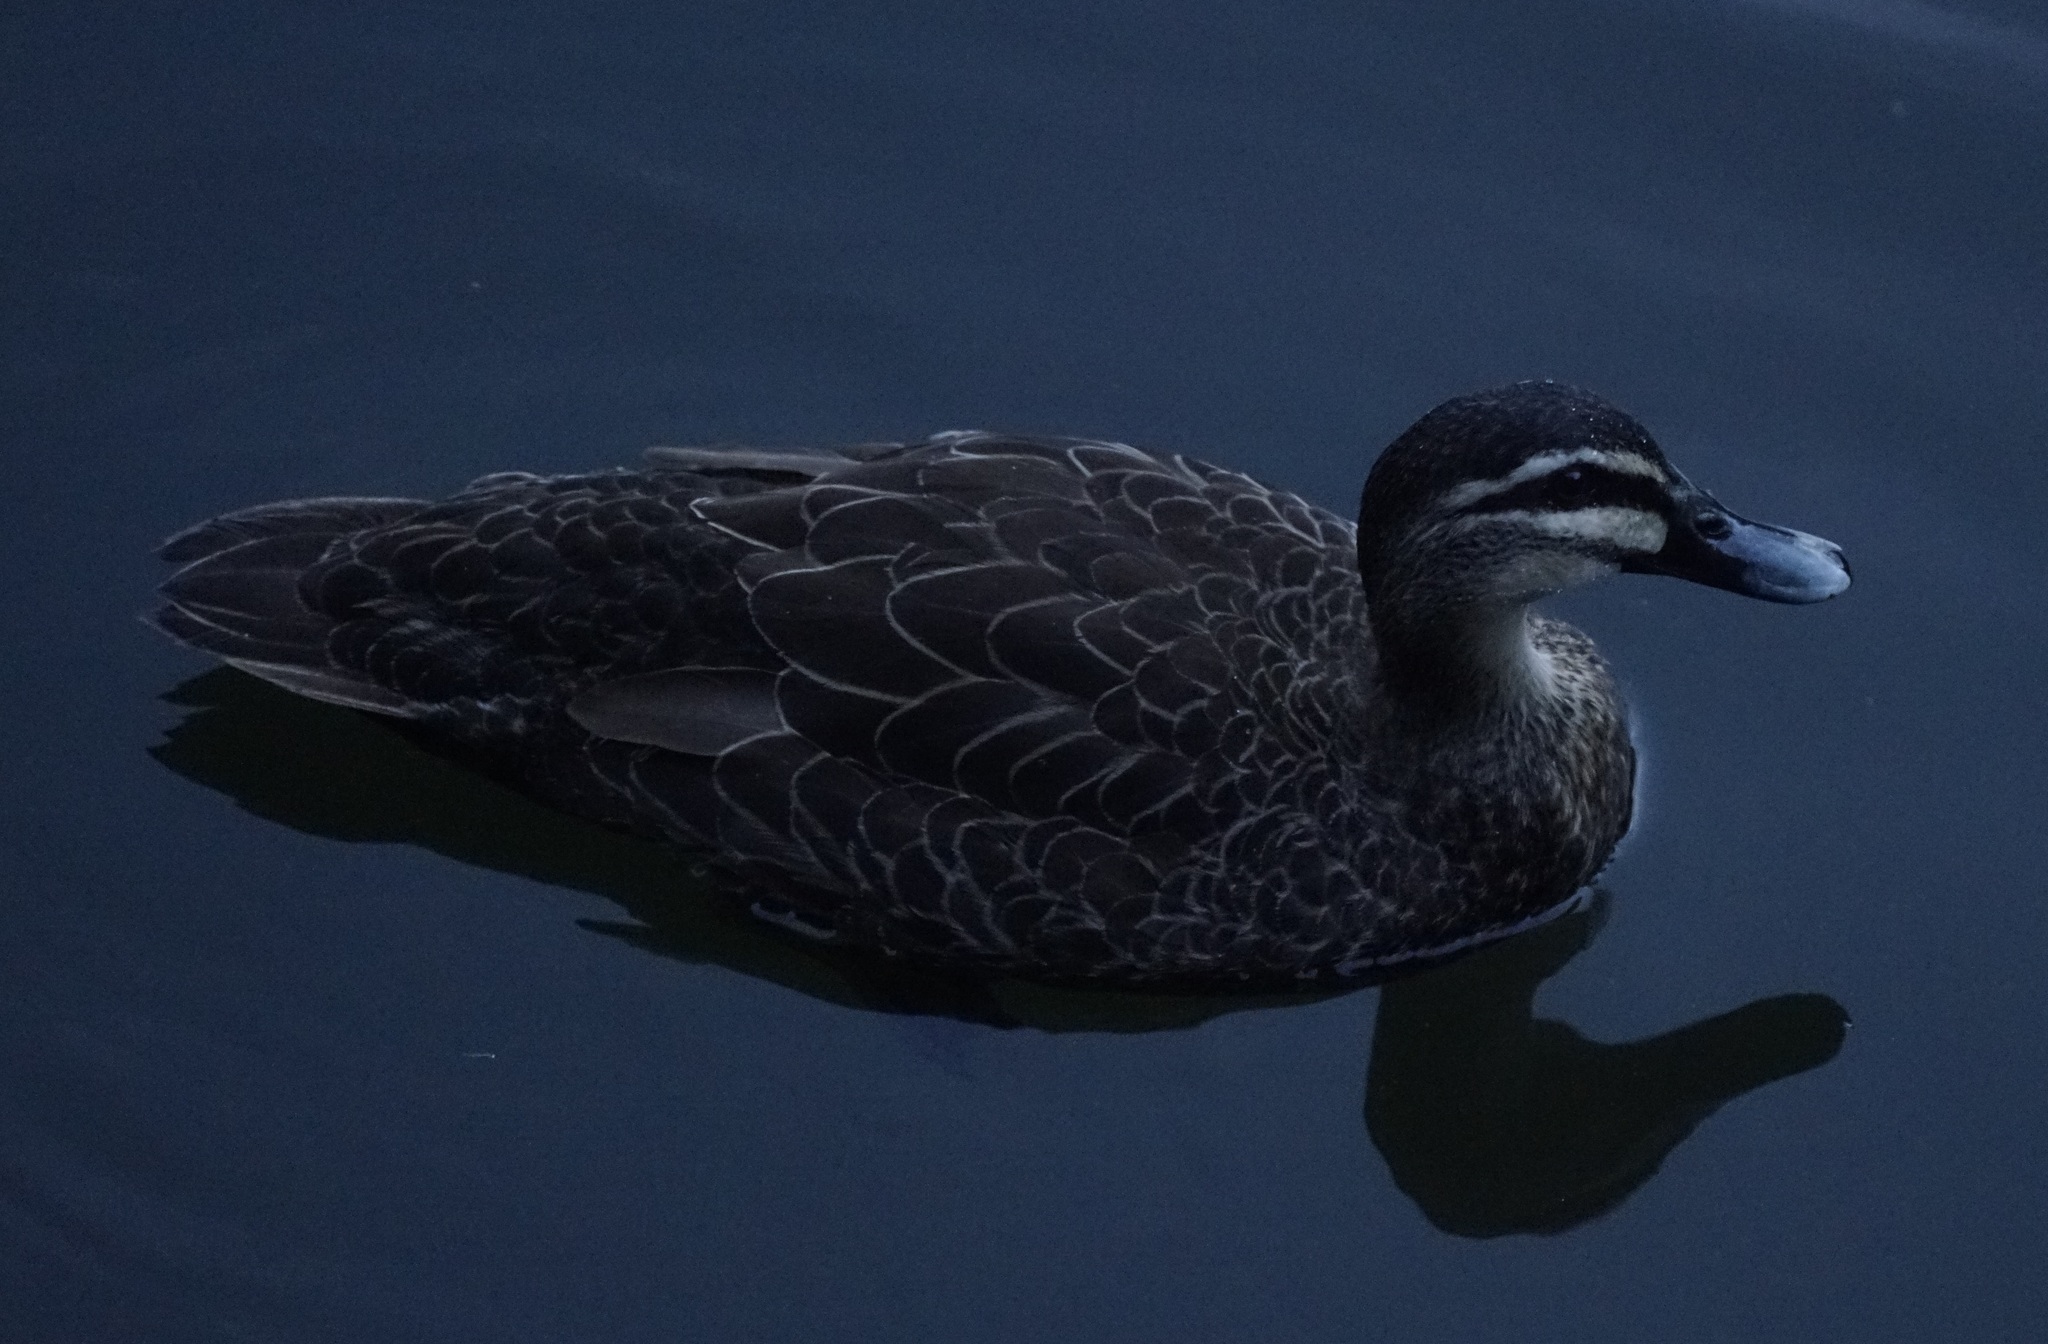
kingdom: Animalia
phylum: Chordata
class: Aves
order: Anseriformes
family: Anatidae
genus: Anas
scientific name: Anas superciliosa
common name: Pacific black duck
